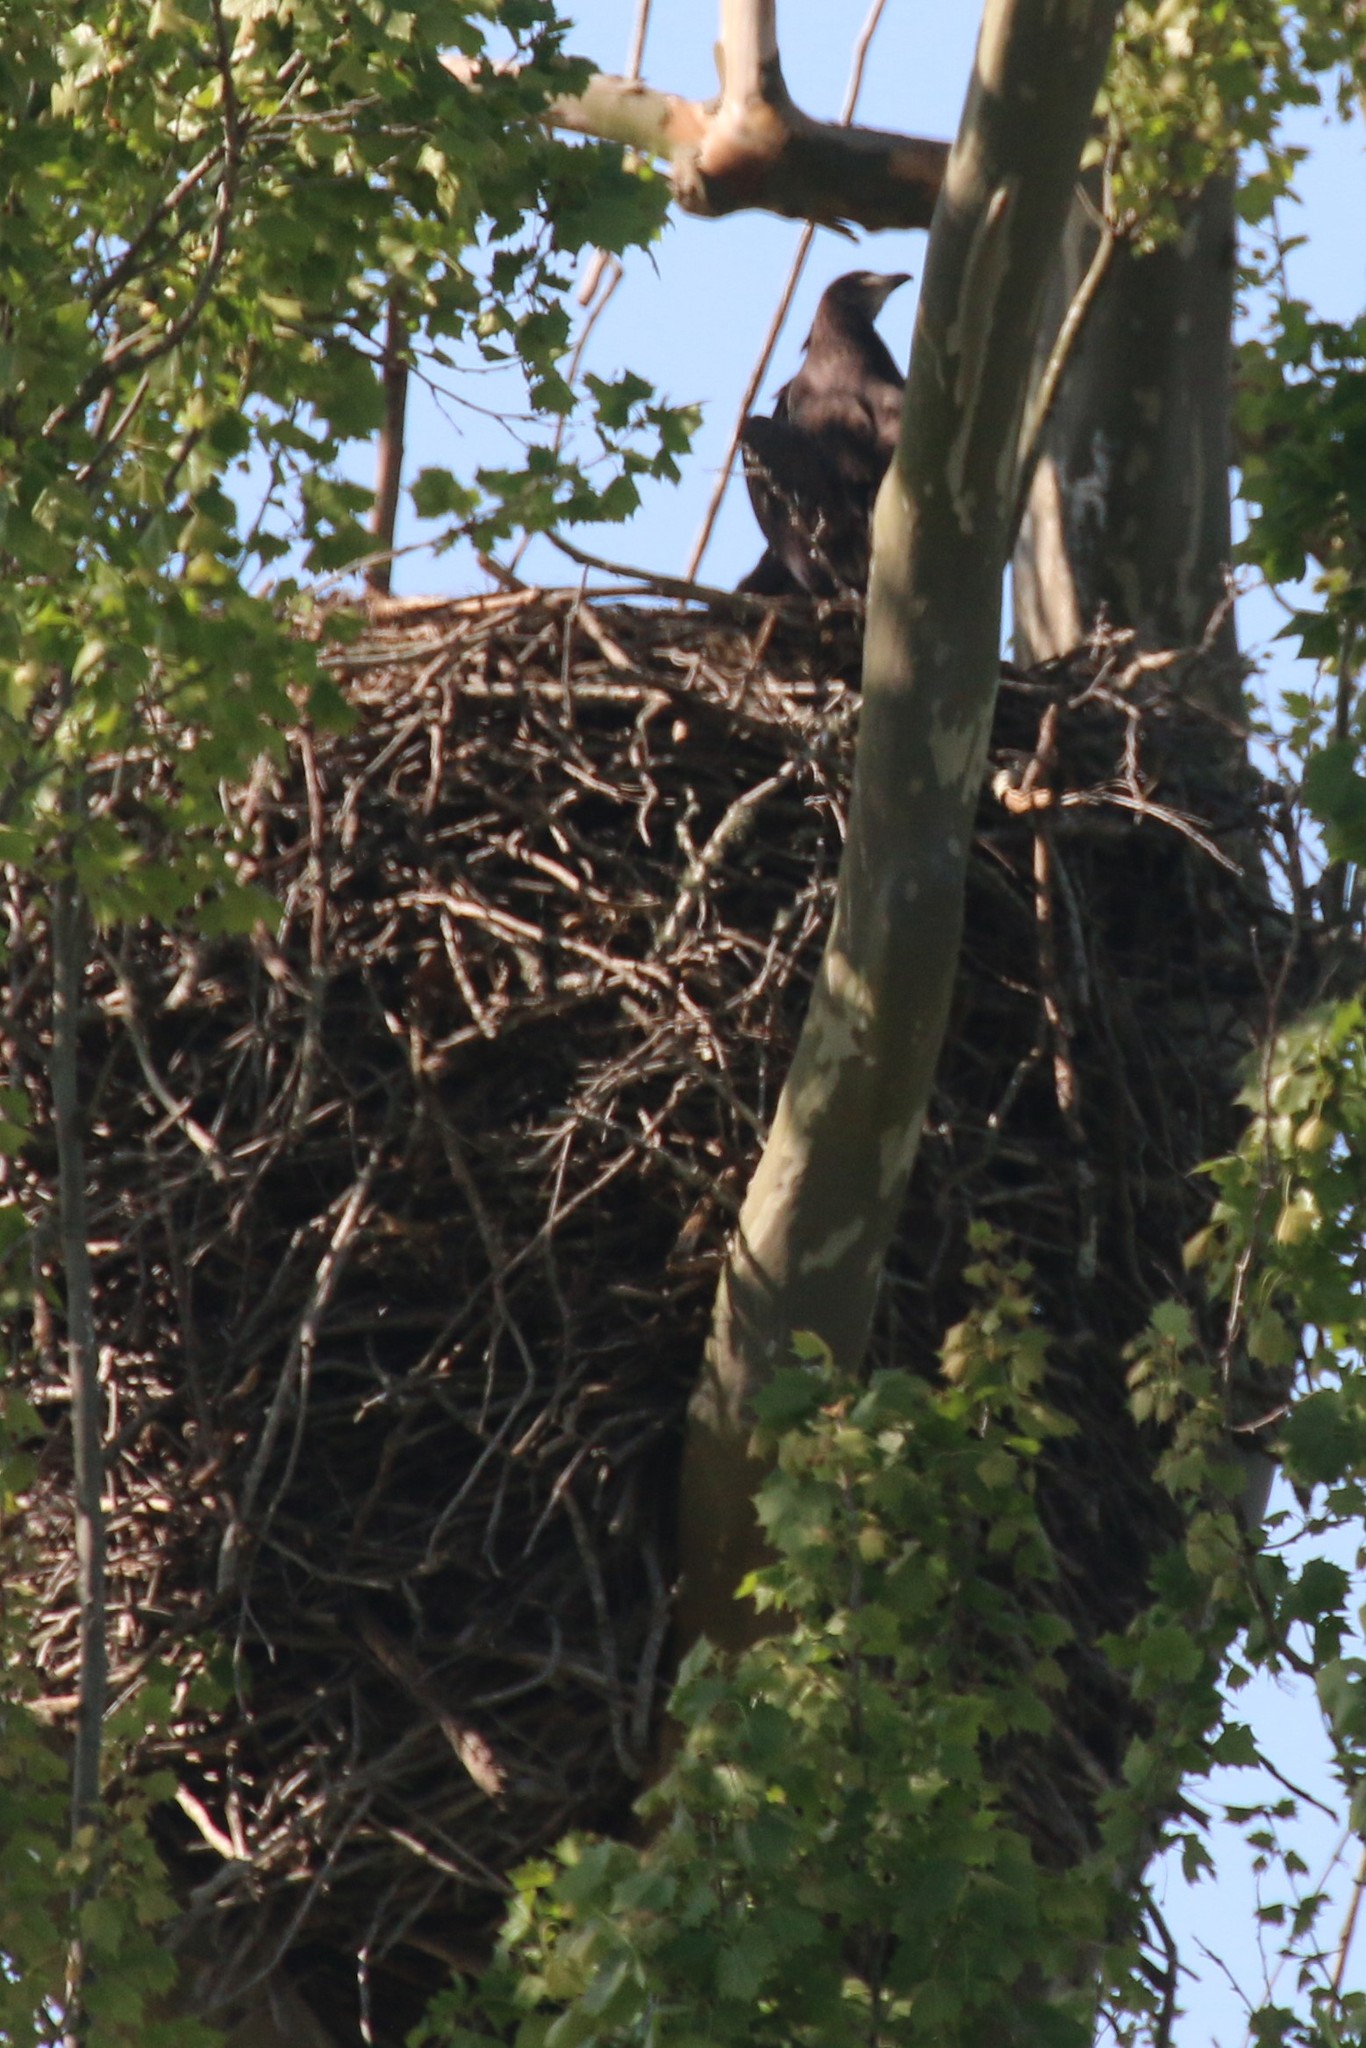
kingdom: Animalia
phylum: Chordata
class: Aves
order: Accipitriformes
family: Accipitridae
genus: Haliaeetus
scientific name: Haliaeetus leucocephalus
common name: Bald eagle
